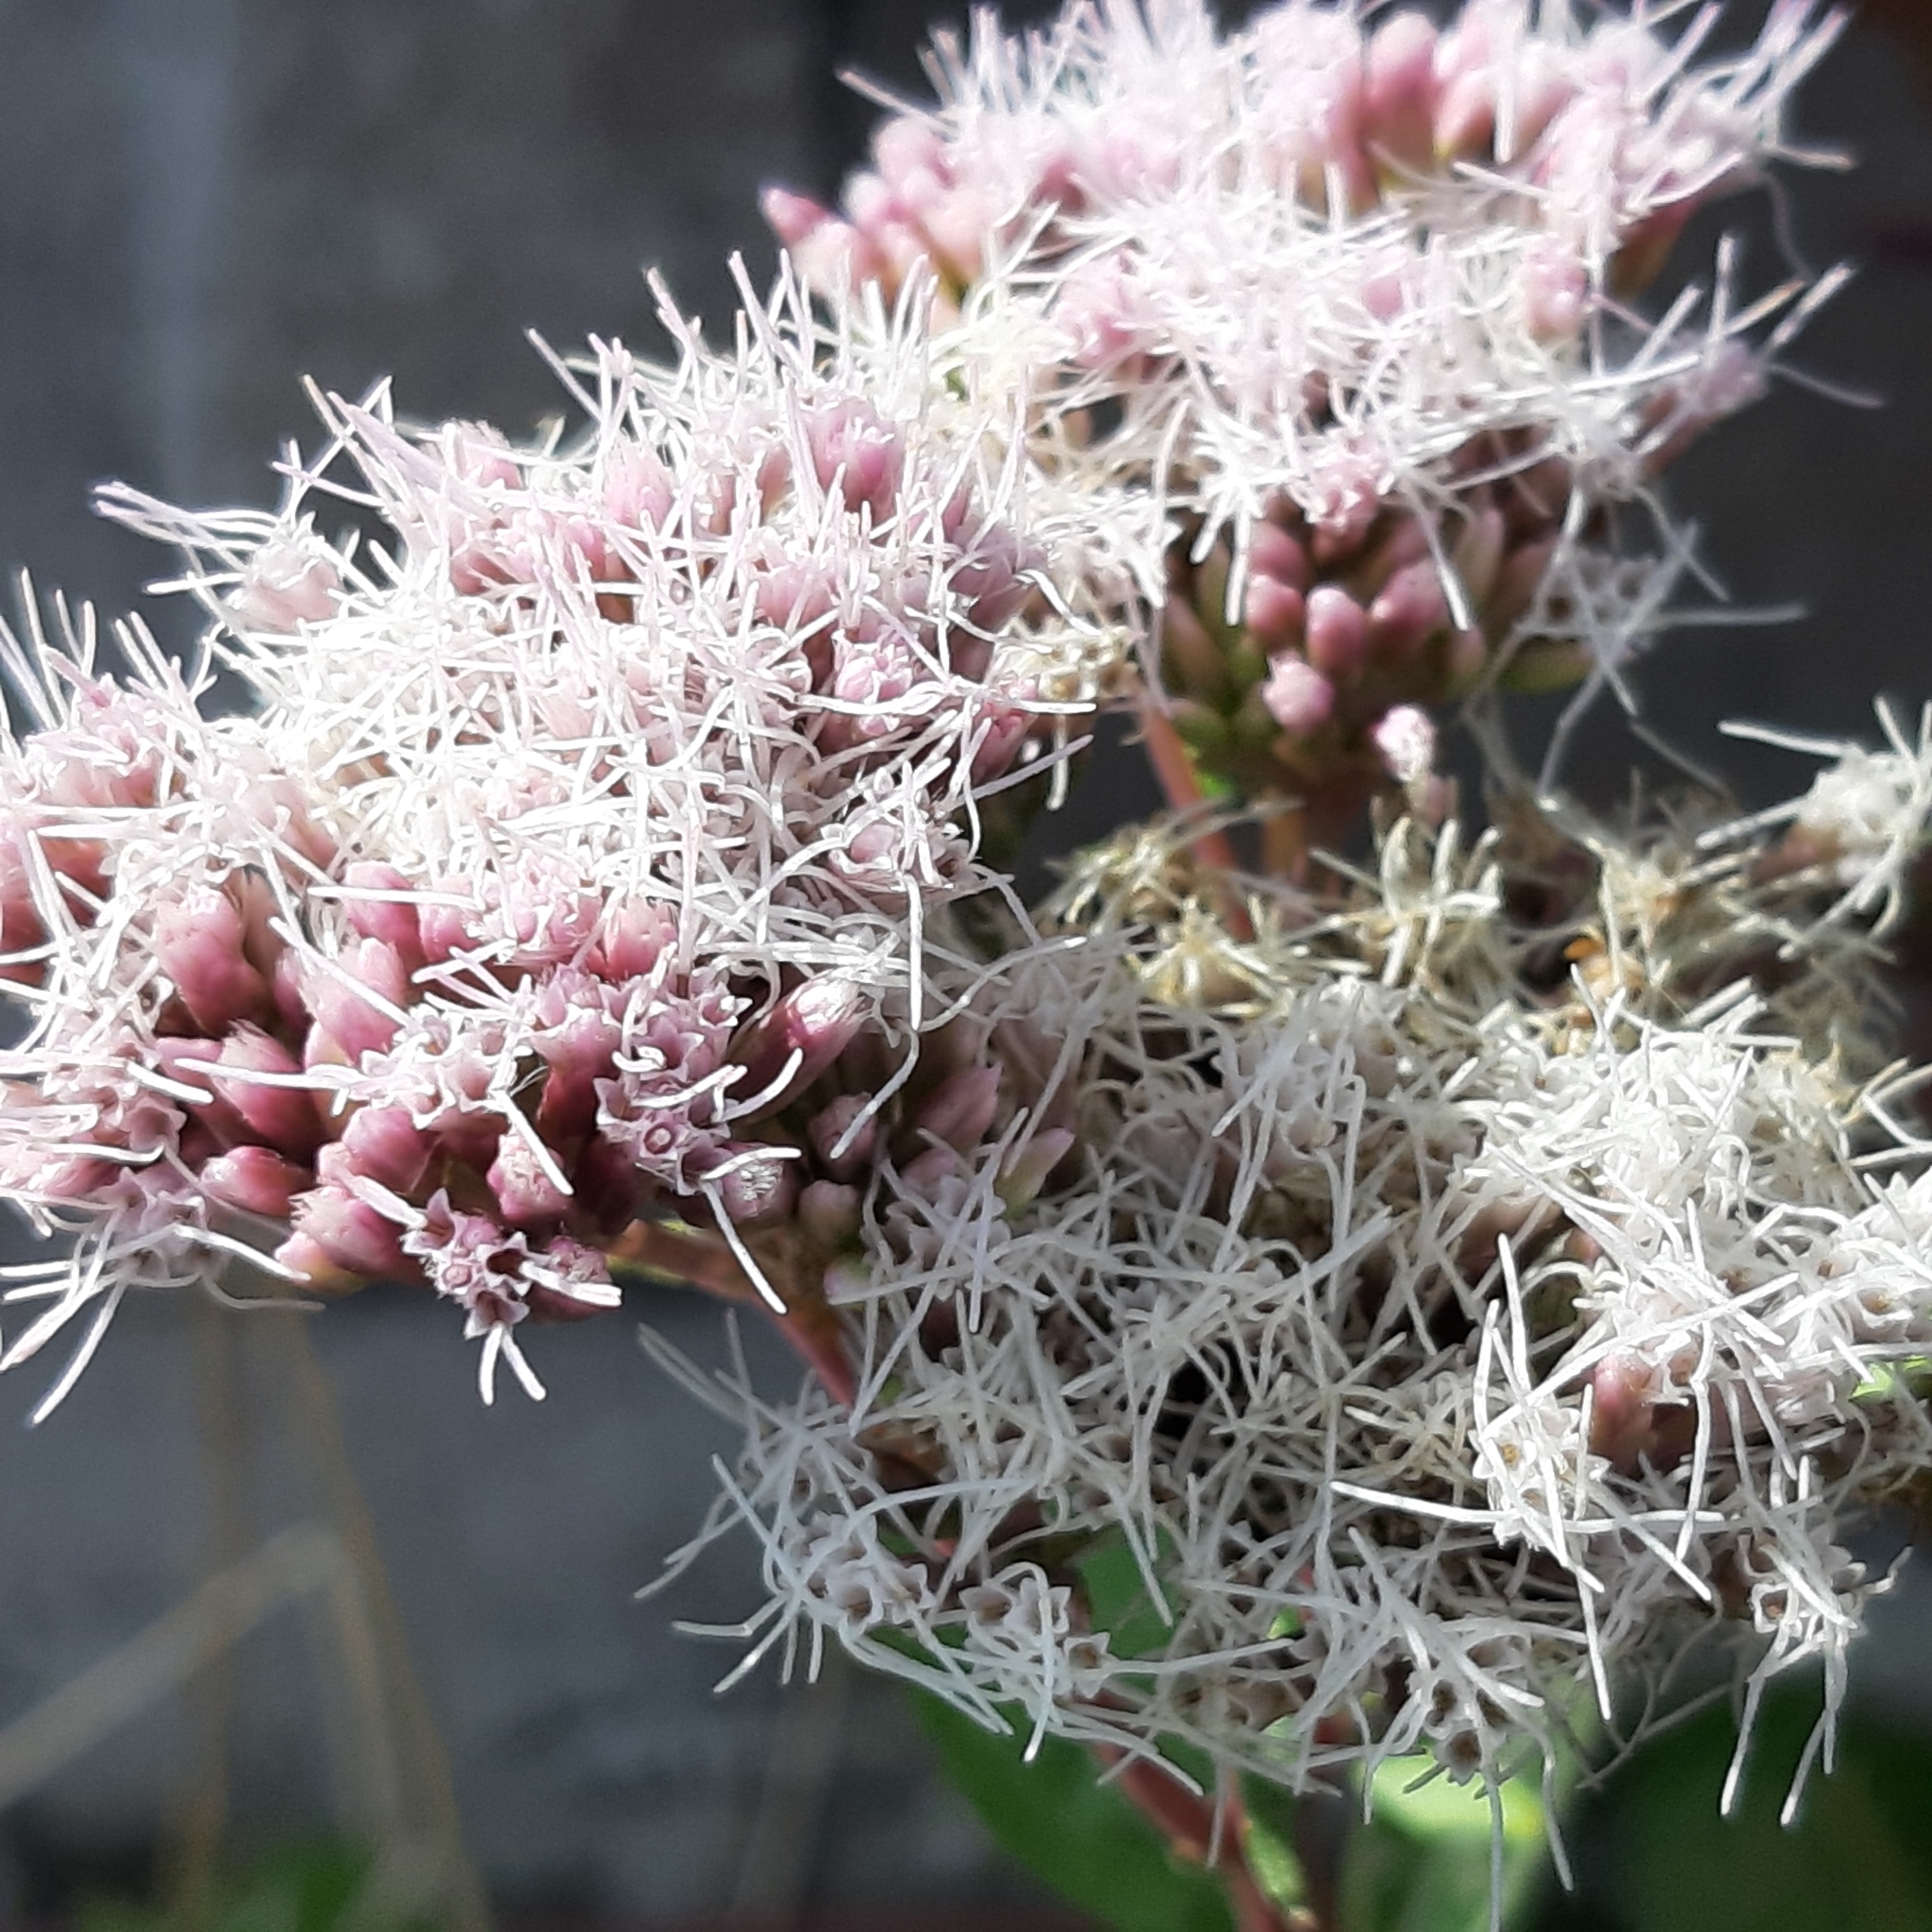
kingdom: Plantae
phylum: Tracheophyta
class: Magnoliopsida
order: Asterales
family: Asteraceae
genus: Eupatorium
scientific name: Eupatorium cannabinum
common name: Hemp-agrimony
